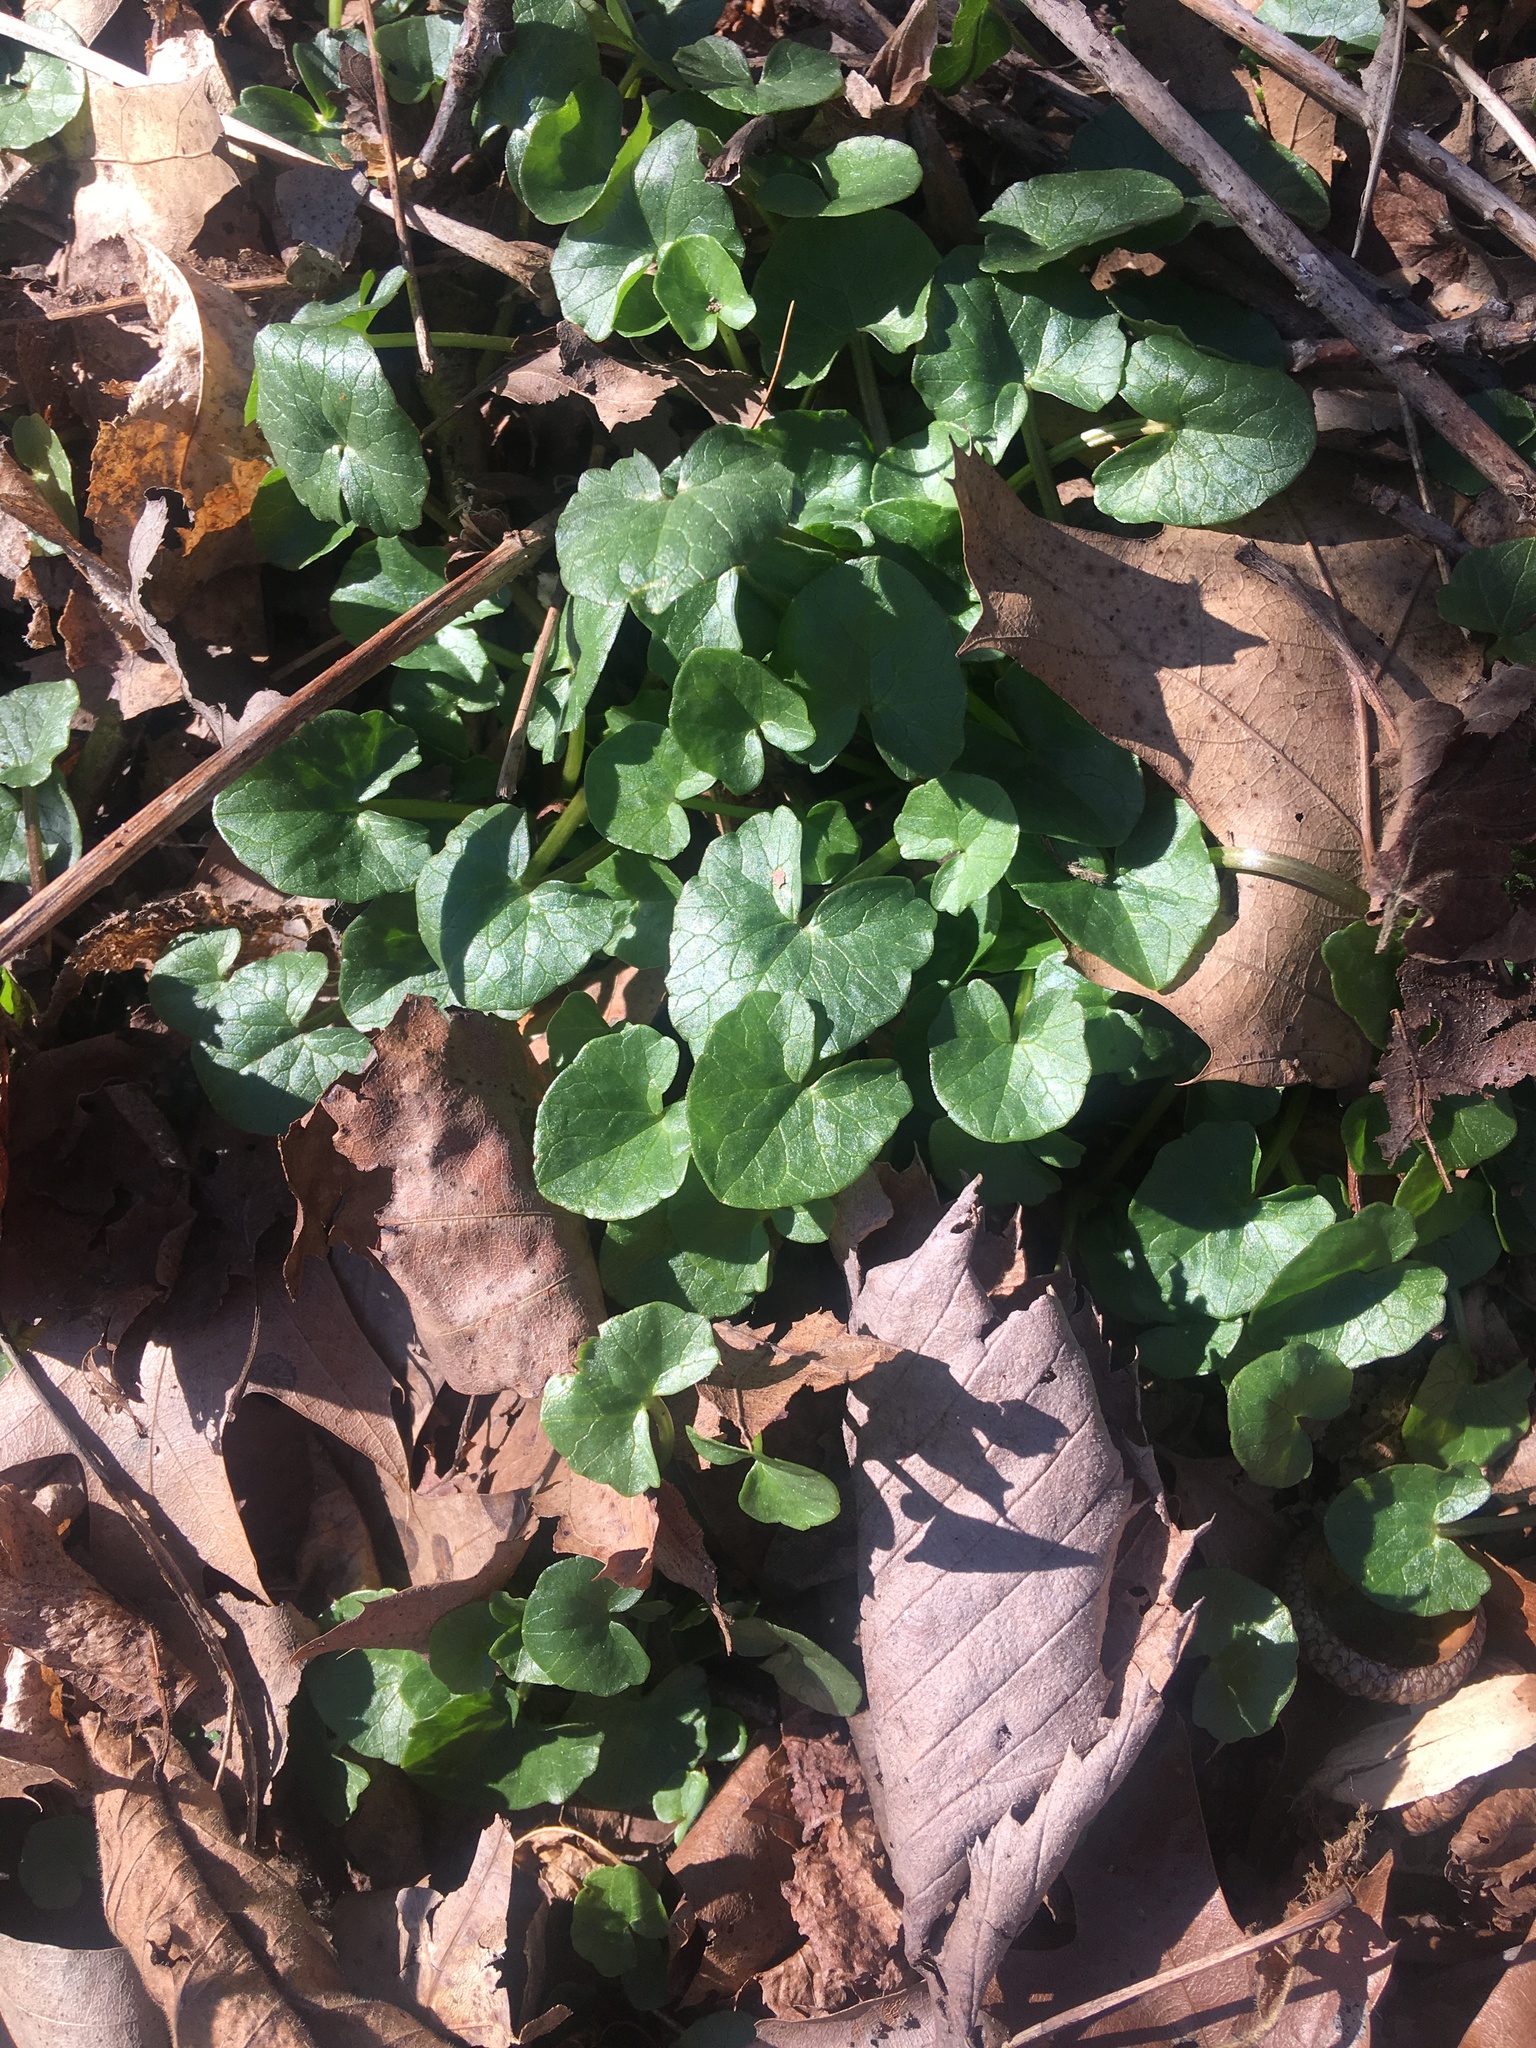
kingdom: Plantae
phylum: Tracheophyta
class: Magnoliopsida
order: Ranunculales
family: Ranunculaceae
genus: Ficaria
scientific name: Ficaria verna
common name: Lesser celandine
